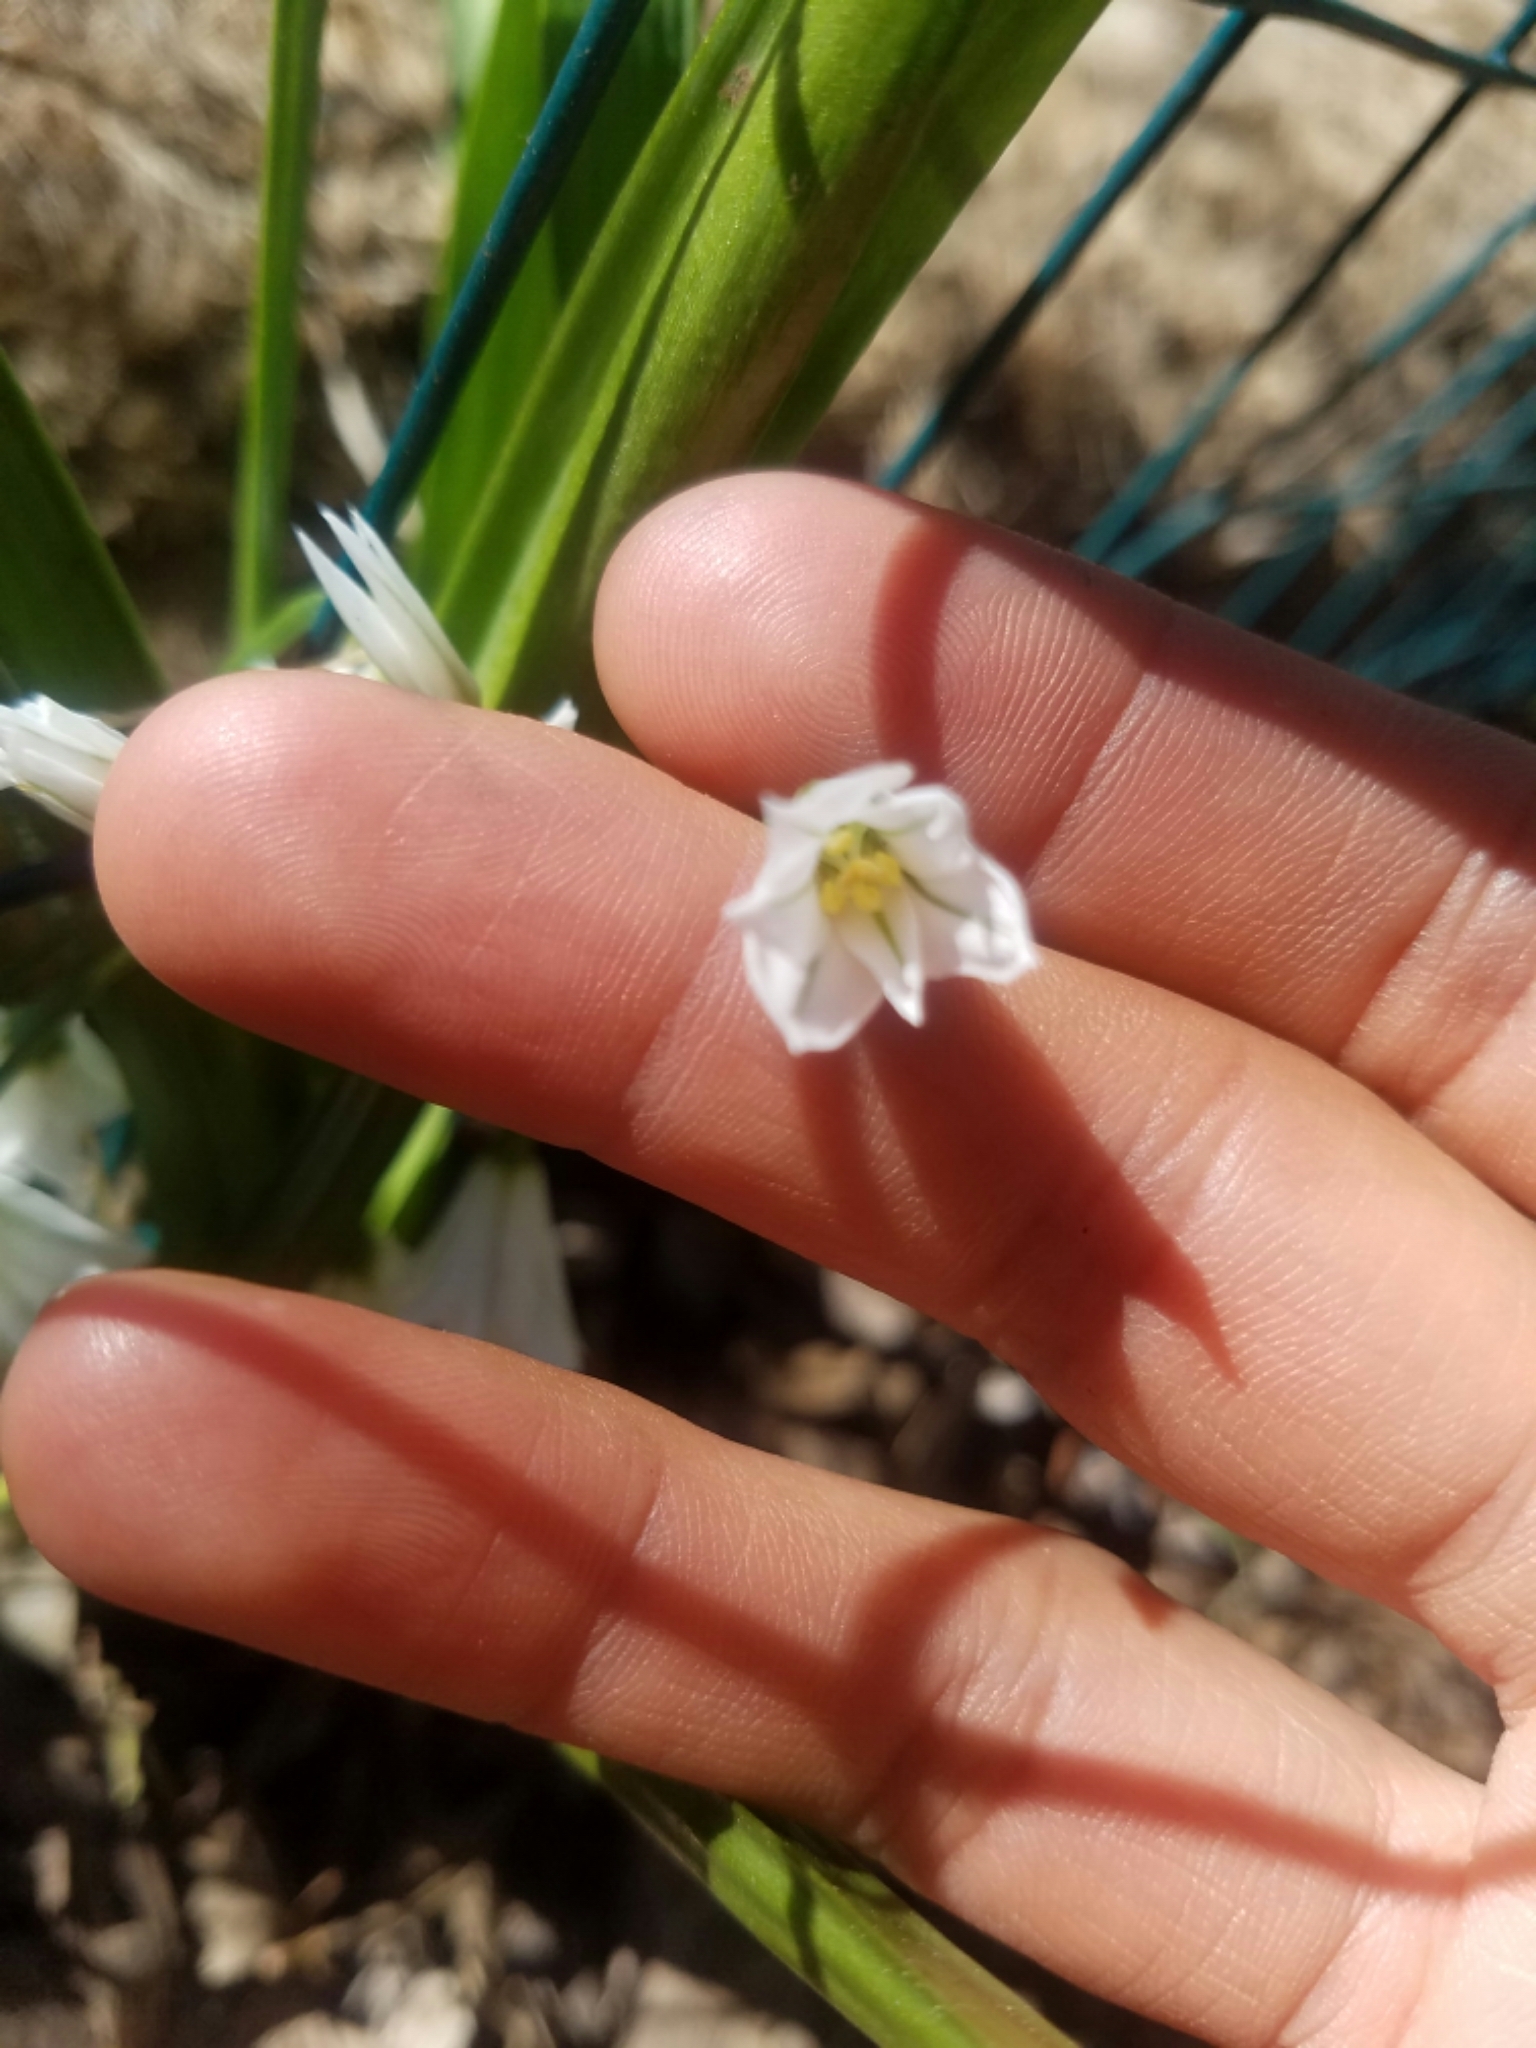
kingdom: Plantae
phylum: Tracheophyta
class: Liliopsida
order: Asparagales
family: Amaryllidaceae
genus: Allium
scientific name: Allium triquetrum
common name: Three-cornered garlic
